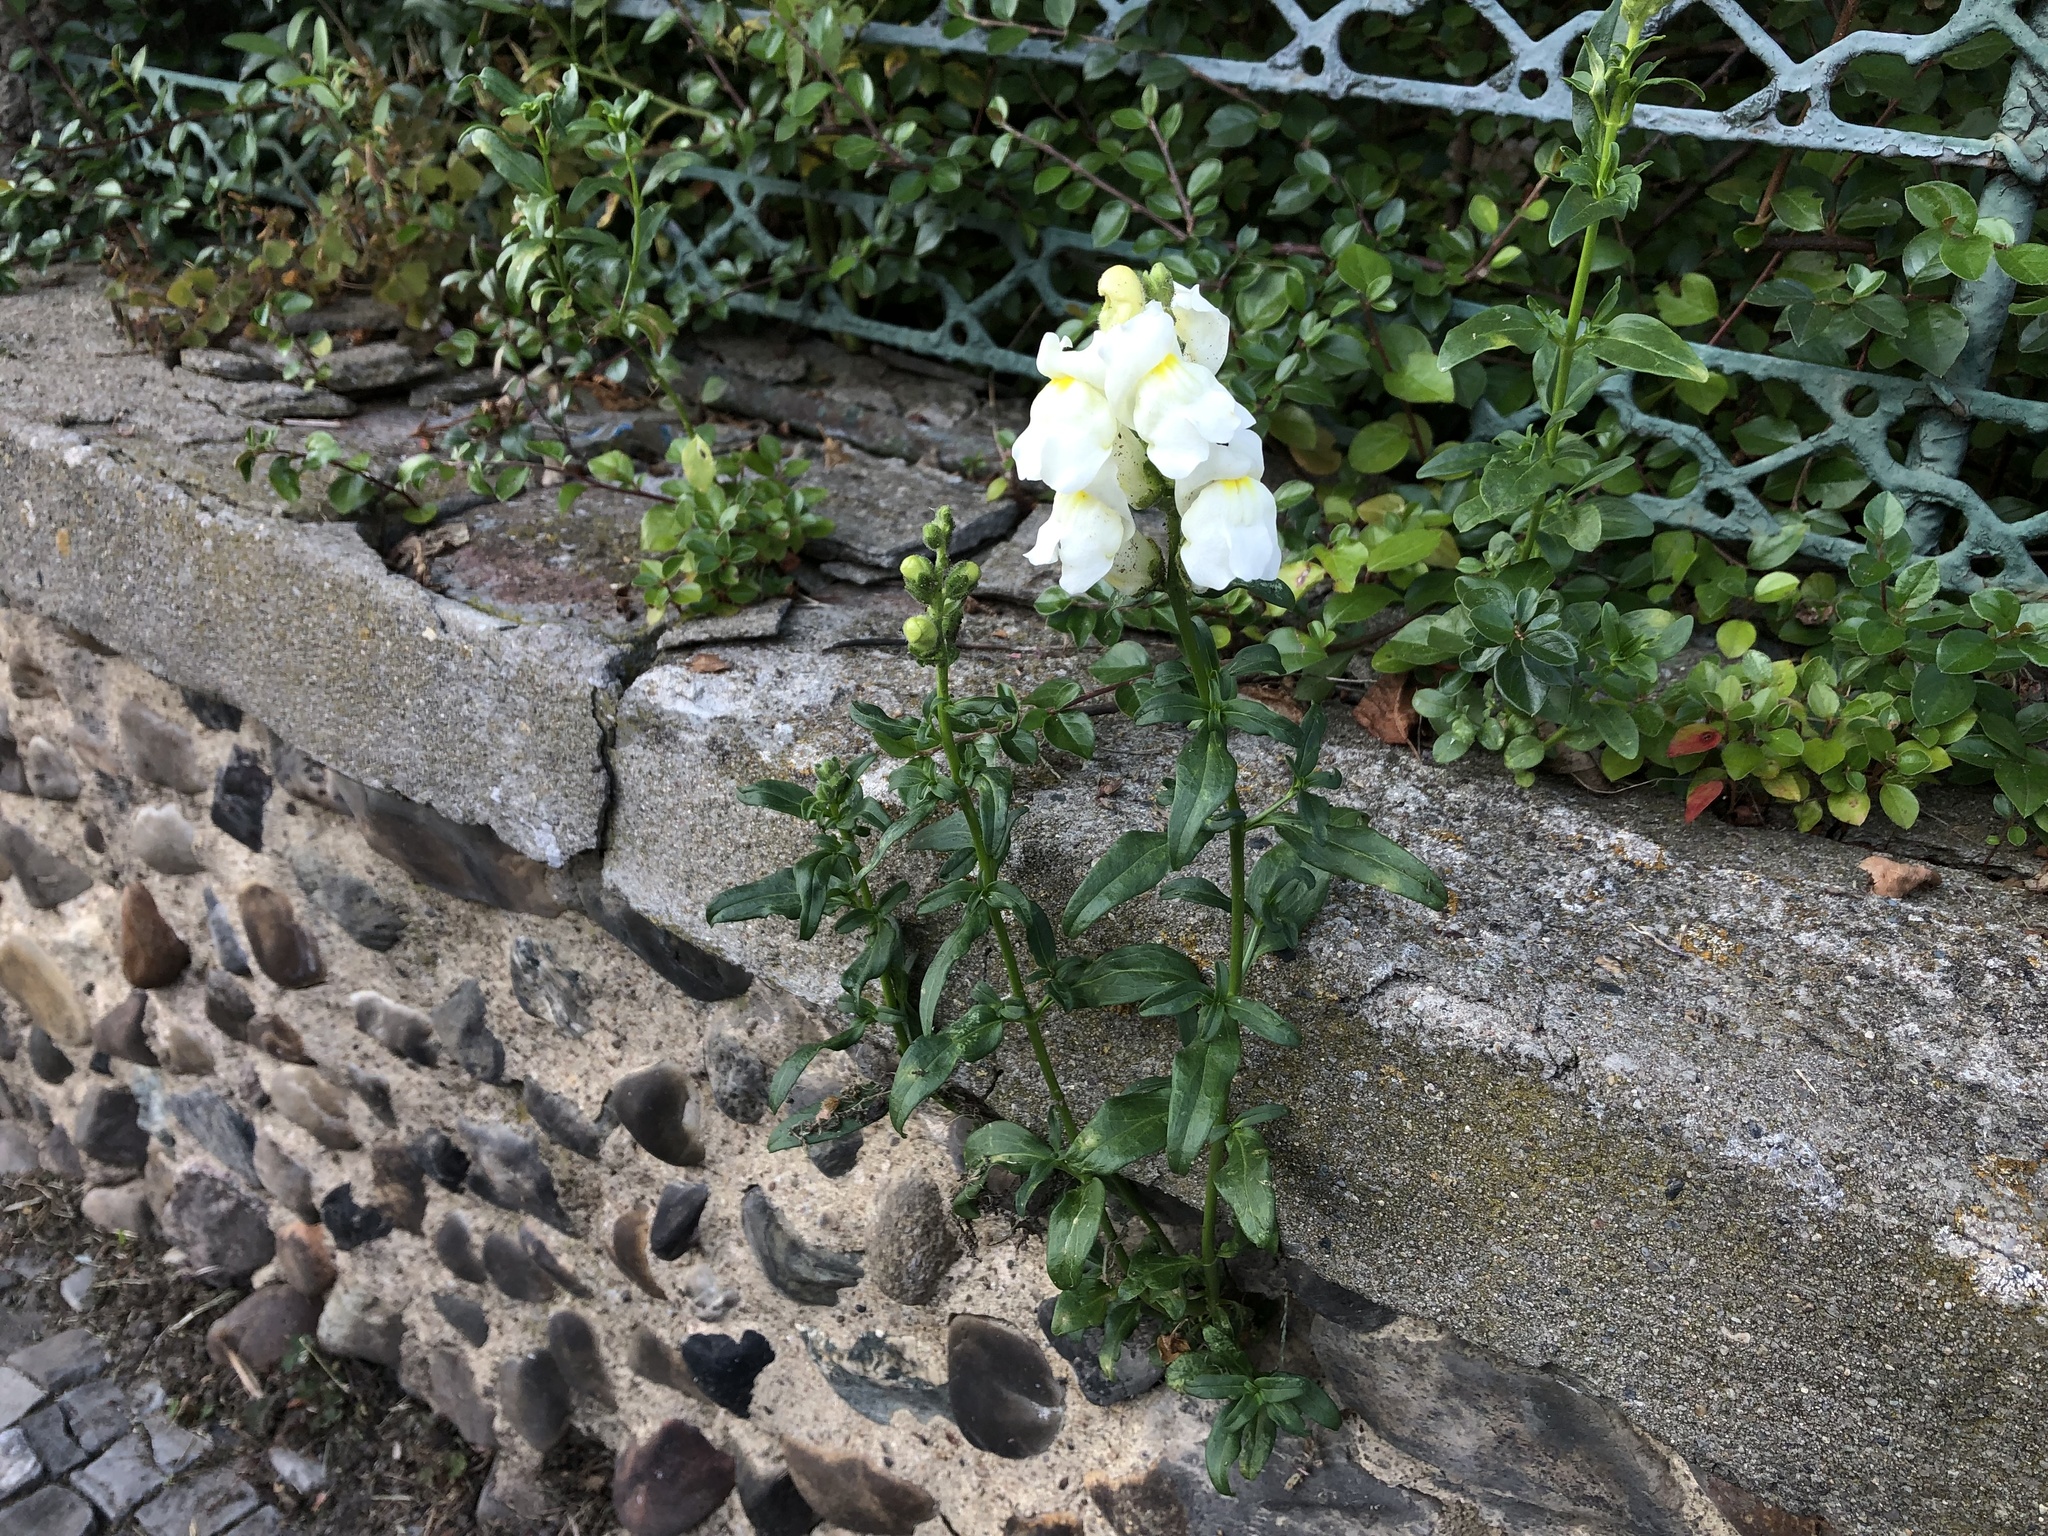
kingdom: Plantae
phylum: Tracheophyta
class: Magnoliopsida
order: Lamiales
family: Plantaginaceae
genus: Antirrhinum
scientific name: Antirrhinum majus
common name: Snapdragon
